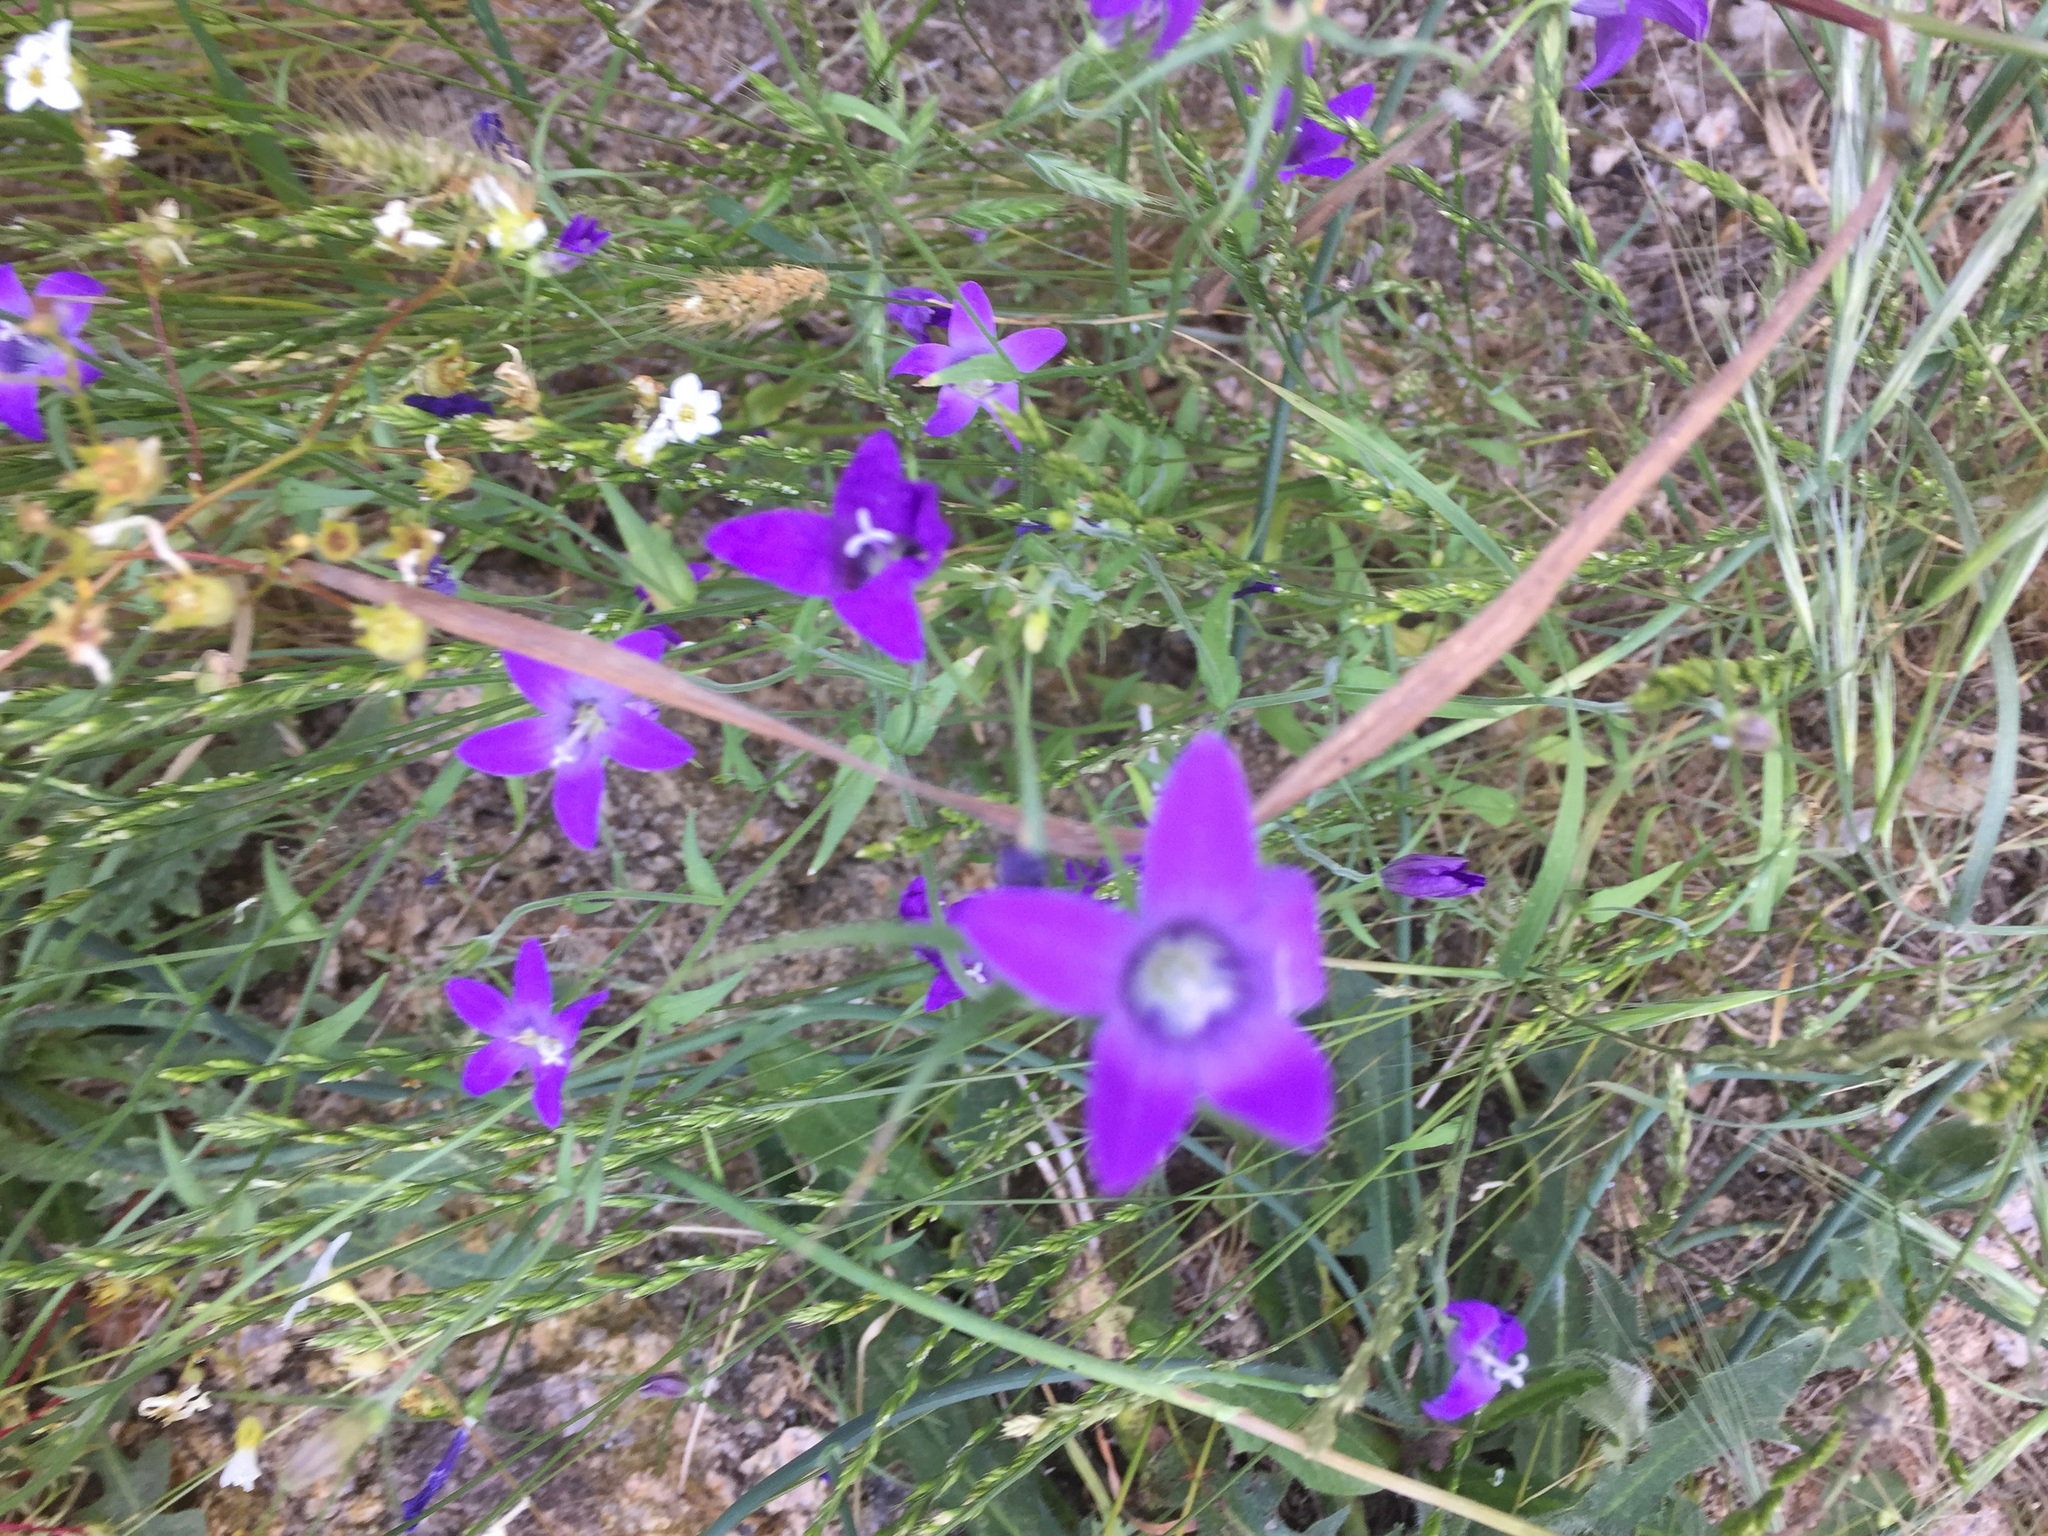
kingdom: Plantae
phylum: Tracheophyta
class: Magnoliopsida
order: Asterales
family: Campanulaceae
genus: Campanula
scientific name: Campanula lusitanica
